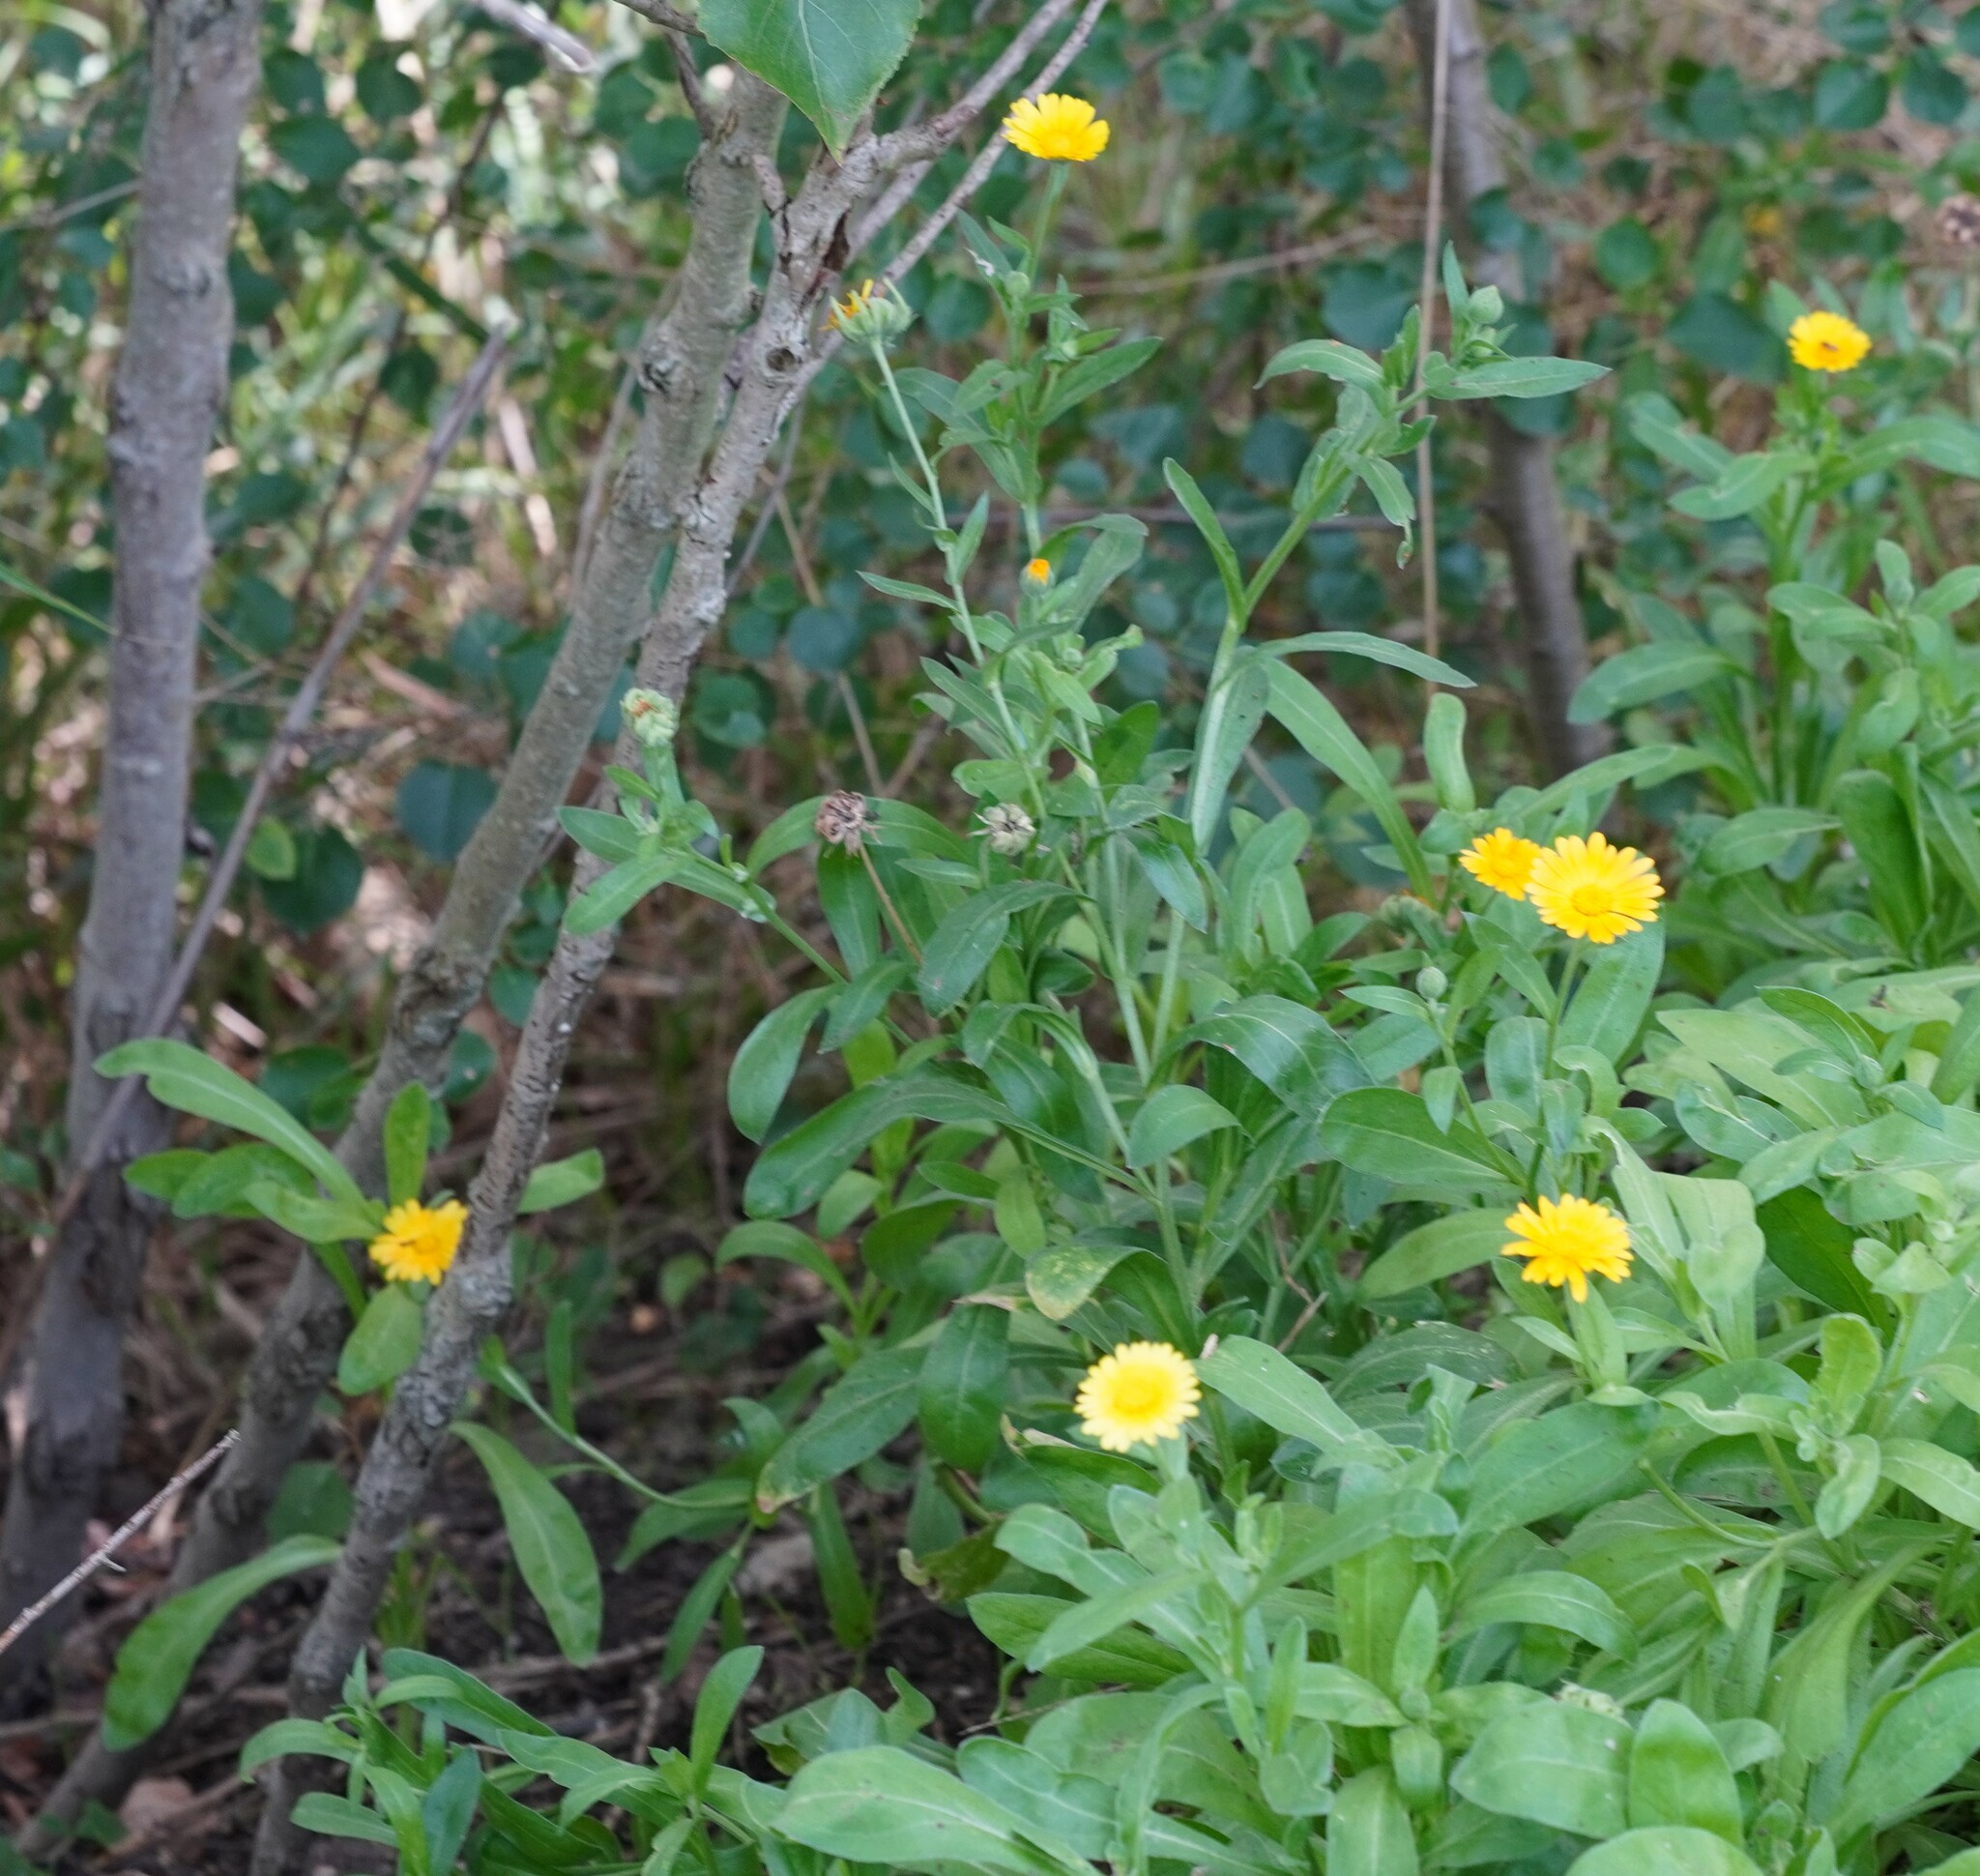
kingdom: Plantae
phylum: Tracheophyta
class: Magnoliopsida
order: Asterales
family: Asteraceae
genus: Calendula
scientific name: Calendula officinalis
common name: Pot marigold
